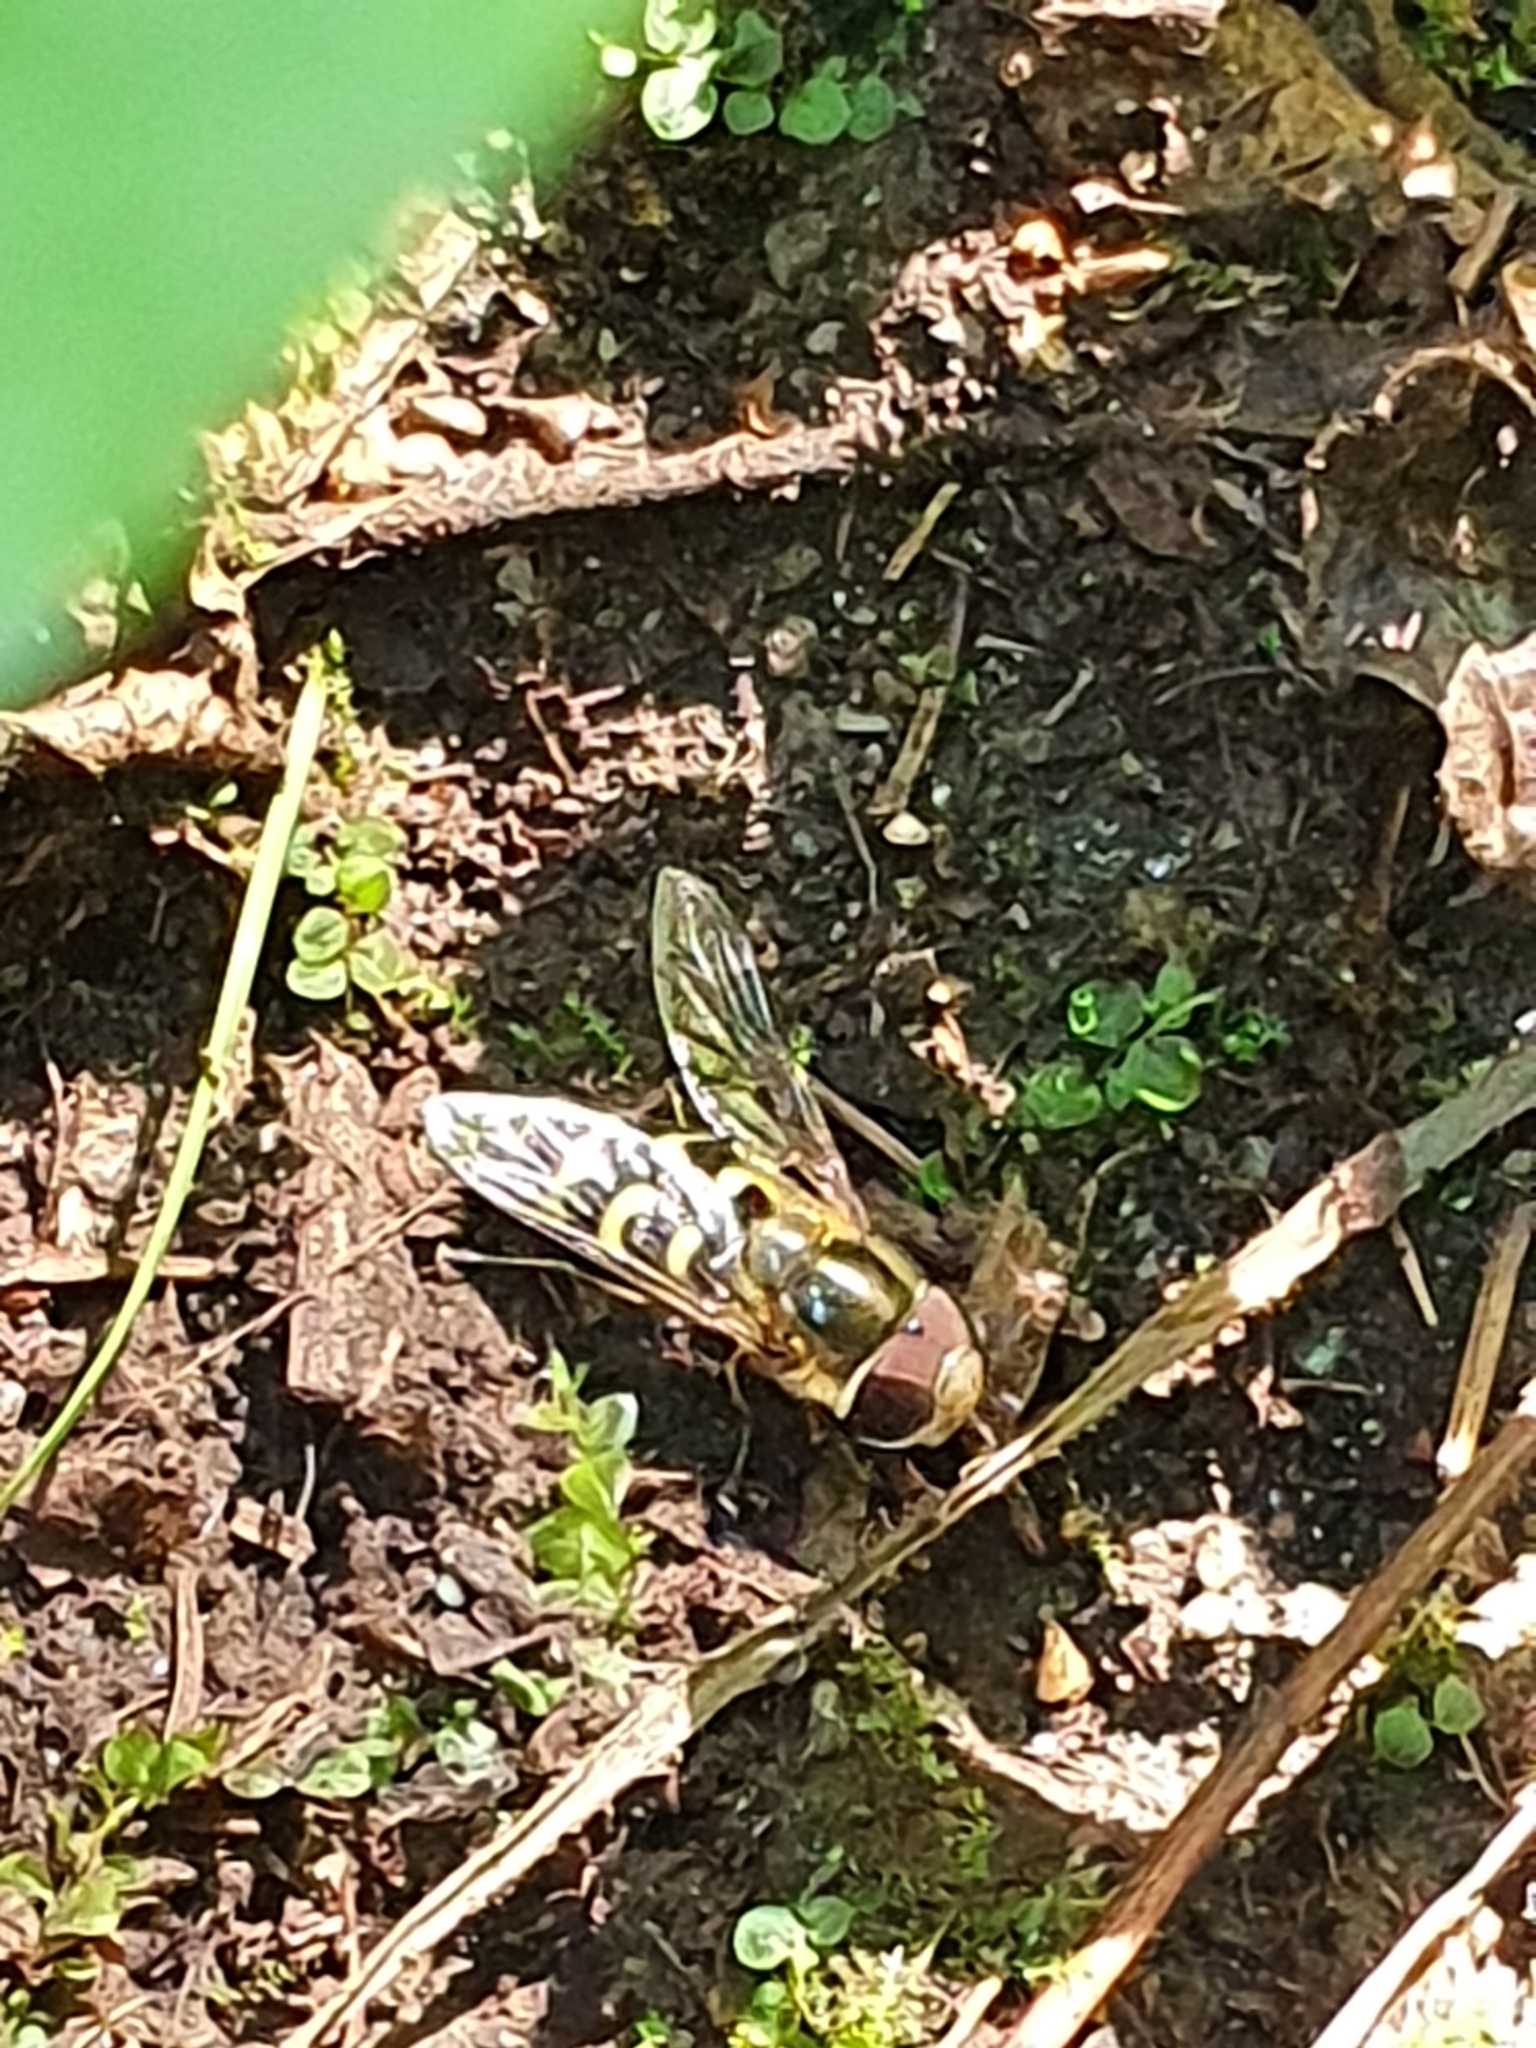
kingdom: Animalia
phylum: Arthropoda
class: Insecta
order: Diptera
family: Syrphidae
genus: Scaeva
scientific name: Scaeva selenitica
